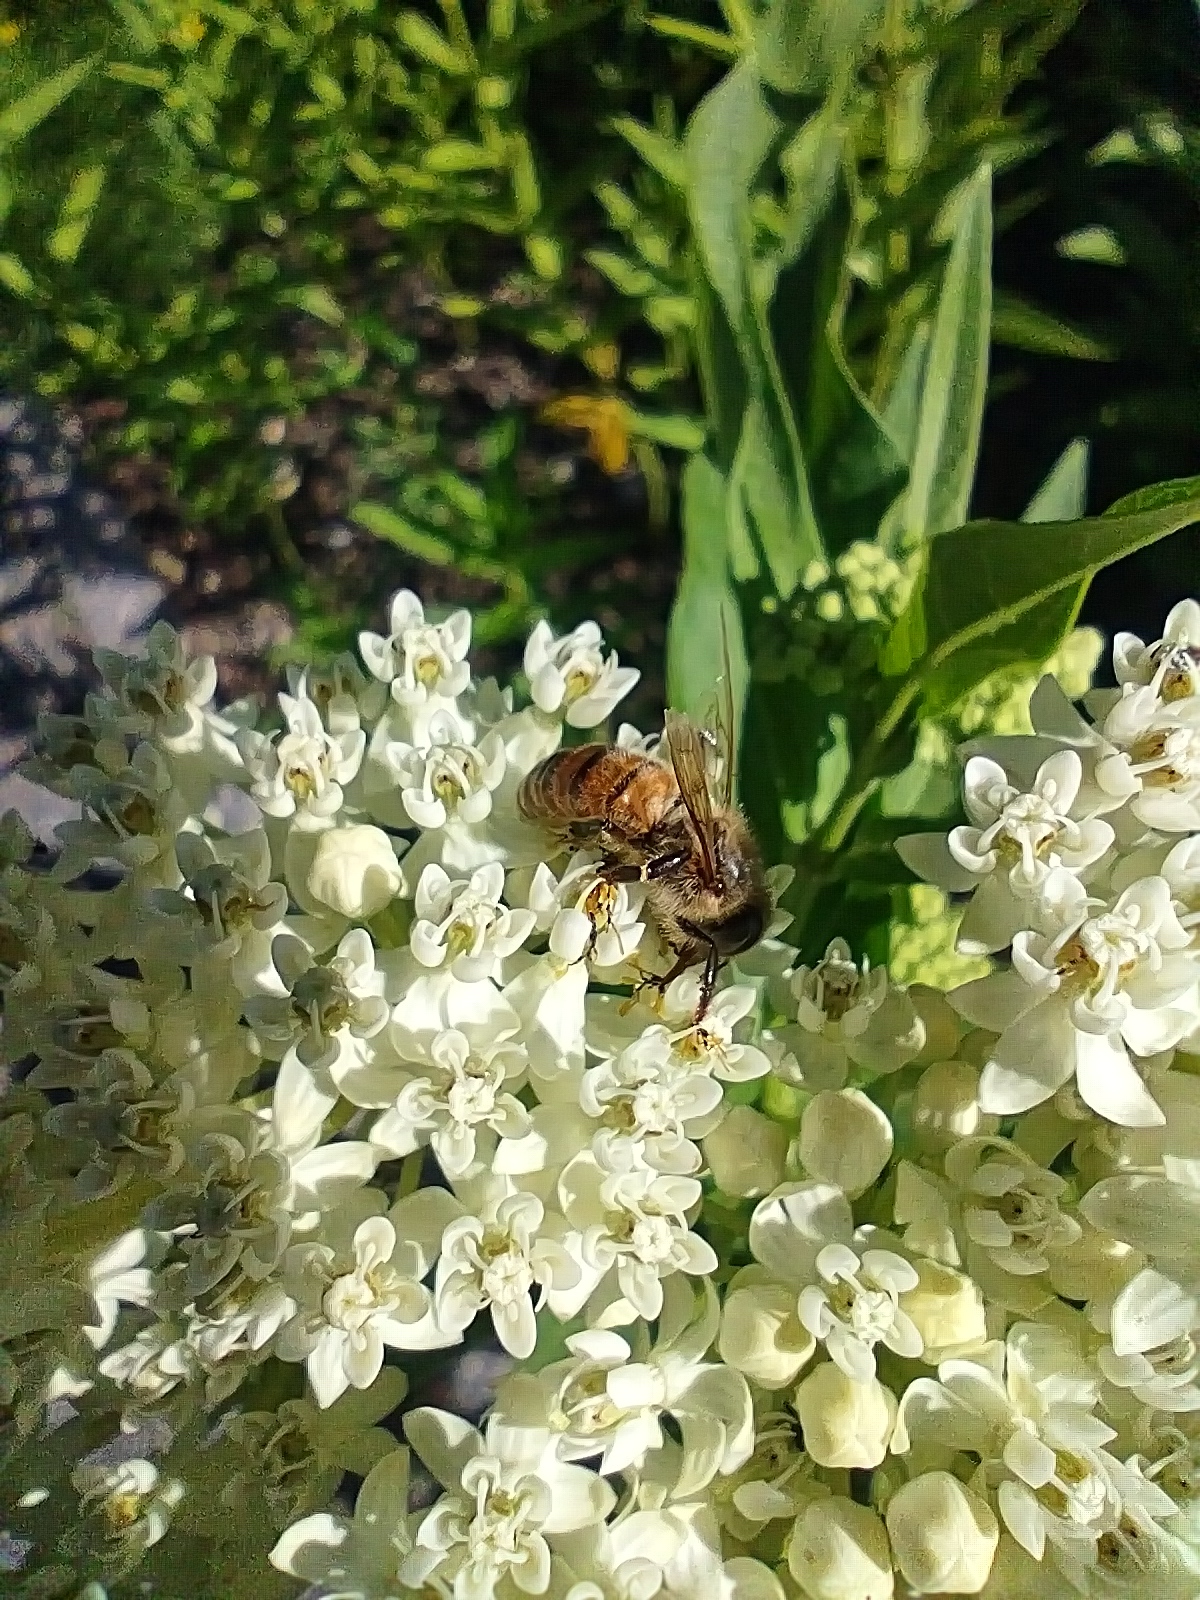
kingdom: Animalia
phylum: Arthropoda
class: Insecta
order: Hymenoptera
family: Apidae
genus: Apis
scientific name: Apis mellifera
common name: Honey bee
